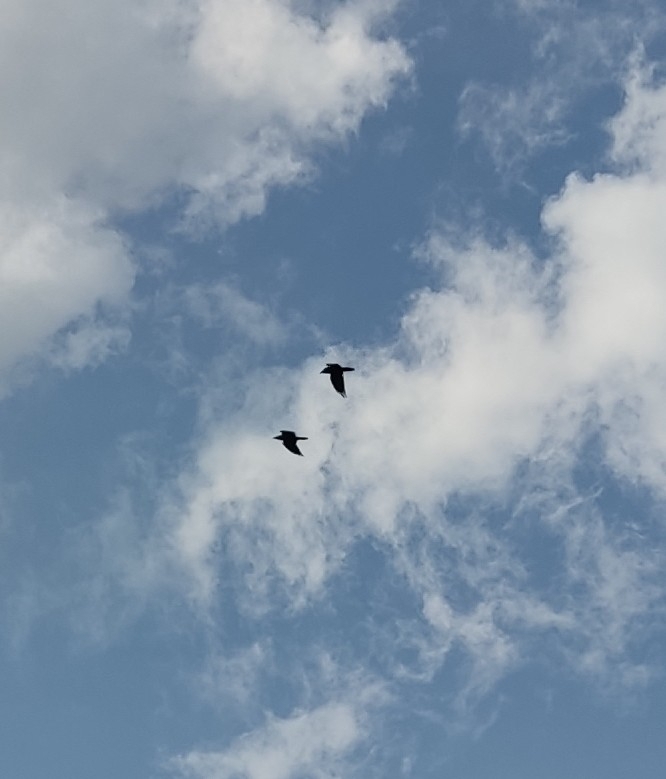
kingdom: Animalia
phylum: Chordata
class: Aves
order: Passeriformes
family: Corvidae
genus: Corvus
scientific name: Corvus corax
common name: Common raven
